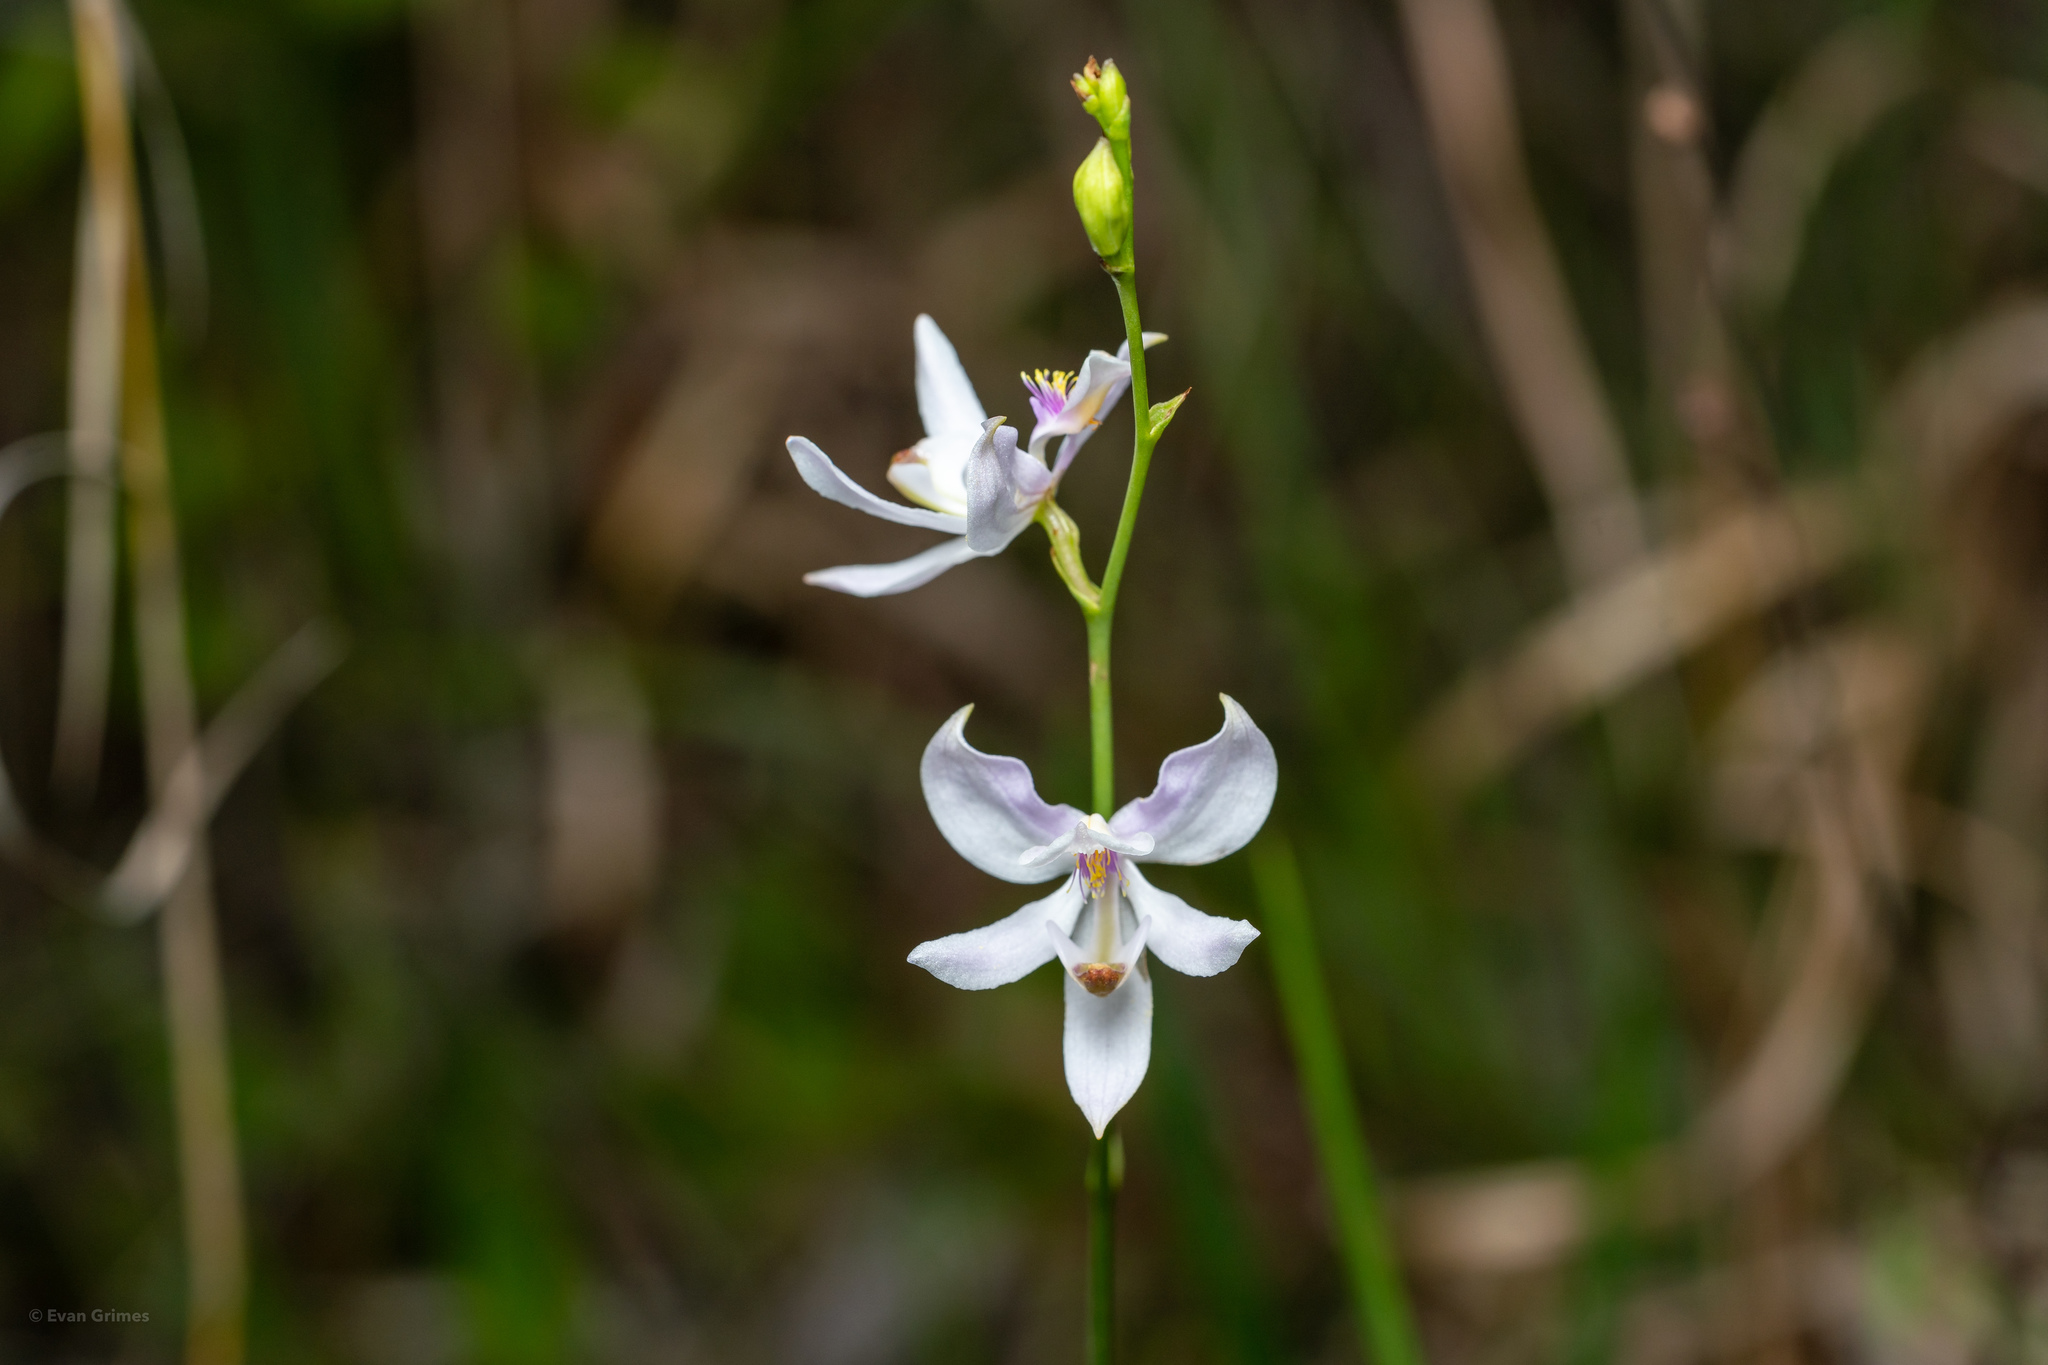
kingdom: Plantae
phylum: Tracheophyta
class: Liliopsida
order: Asparagales
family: Orchidaceae
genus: Calopogon
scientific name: Calopogon pallidus
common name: Pale grasspink
